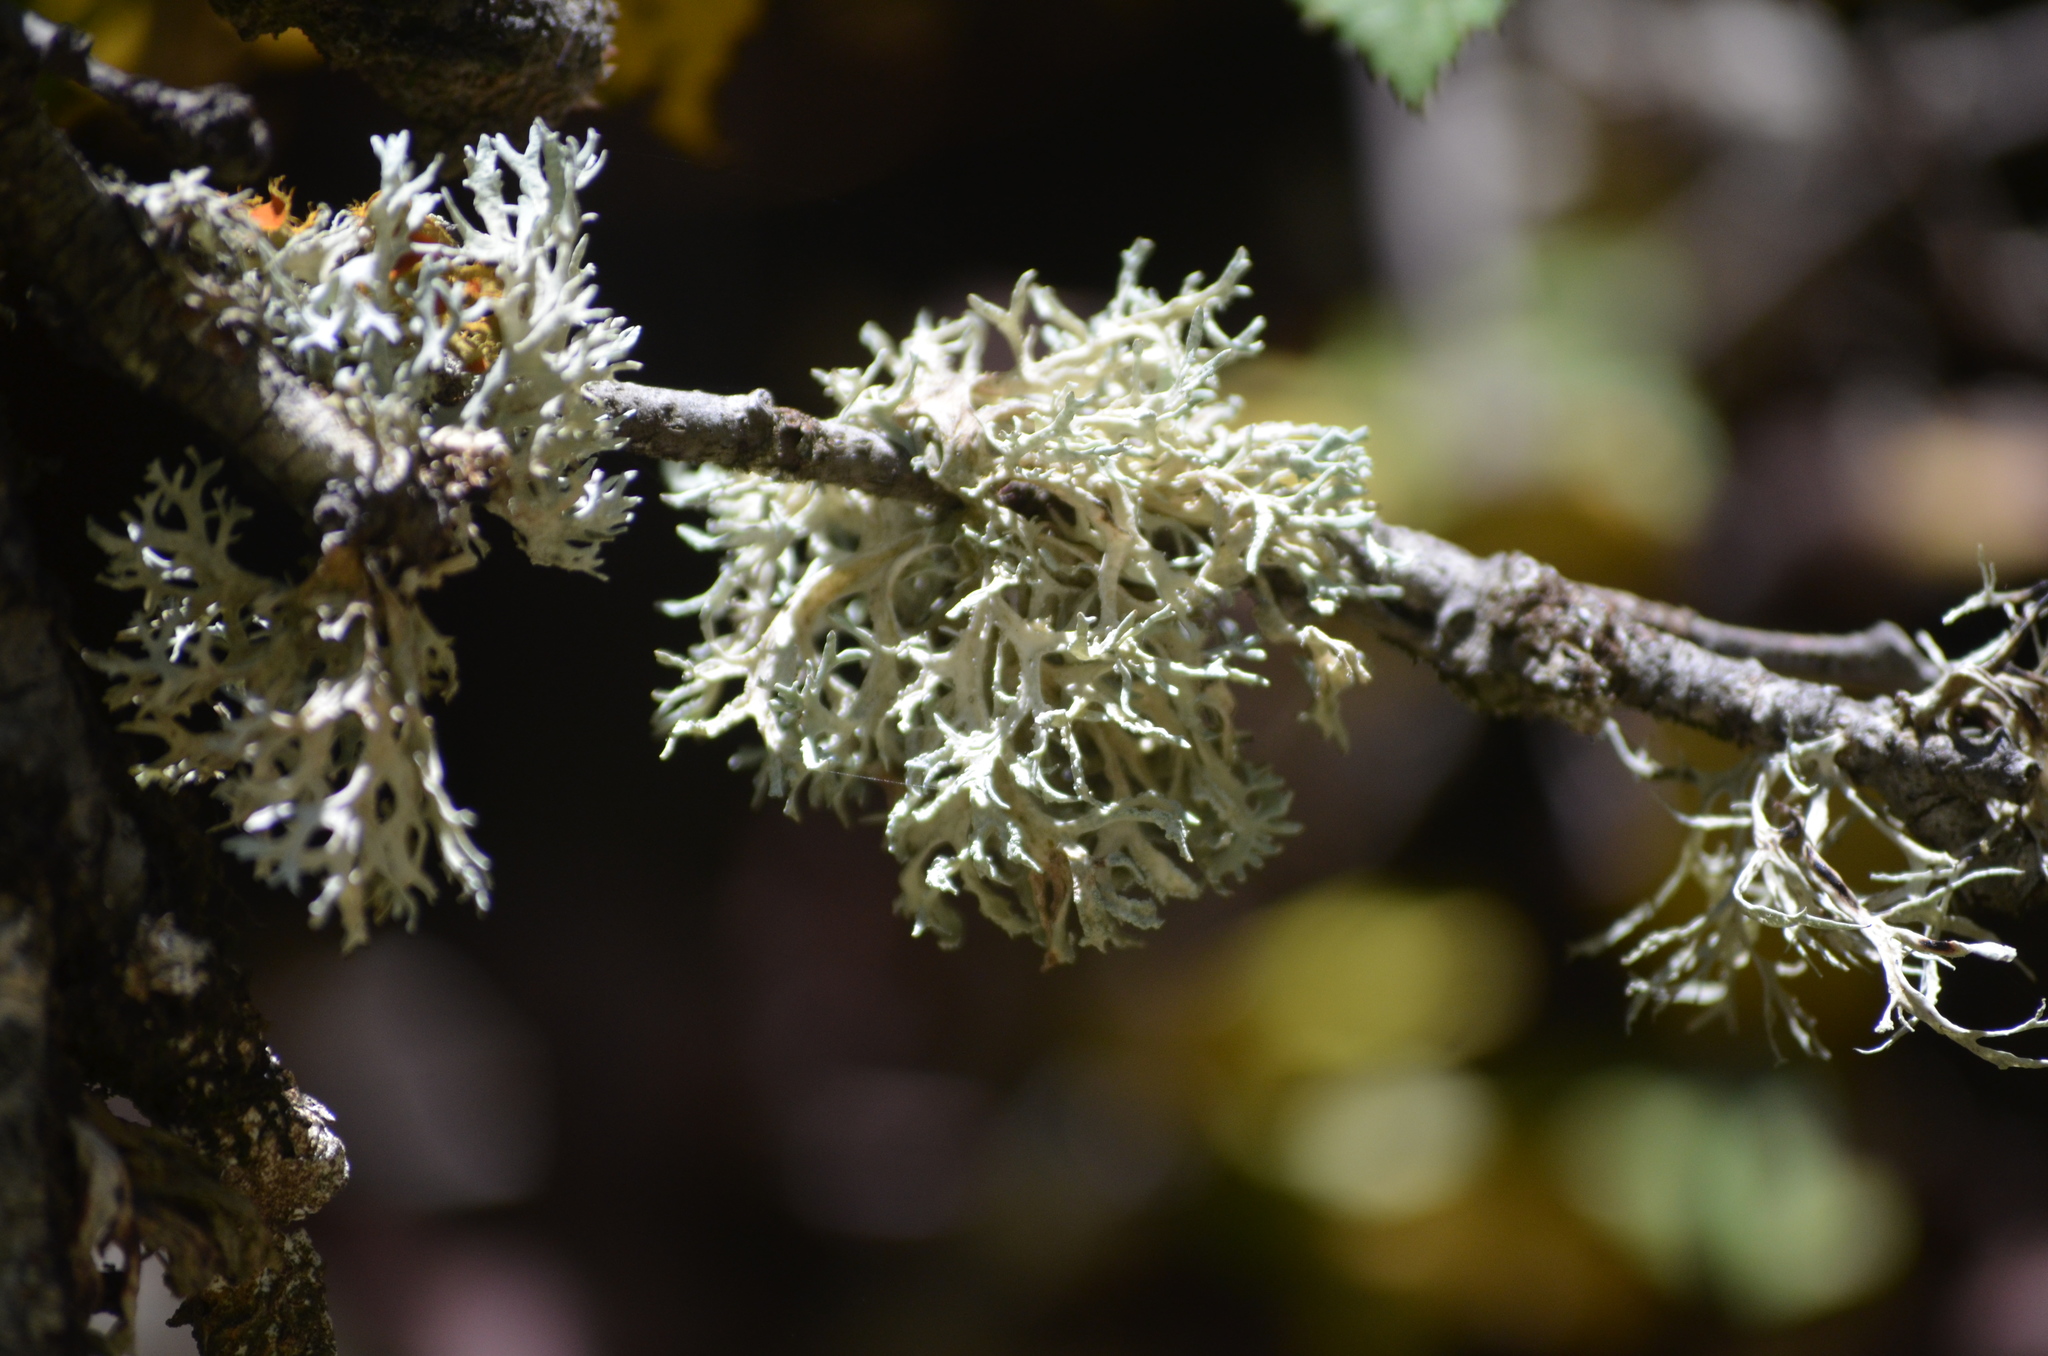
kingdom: Fungi
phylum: Ascomycota
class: Lecanoromycetes
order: Lecanorales
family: Parmeliaceae
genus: Evernia
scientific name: Evernia prunastri
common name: Oak moss
